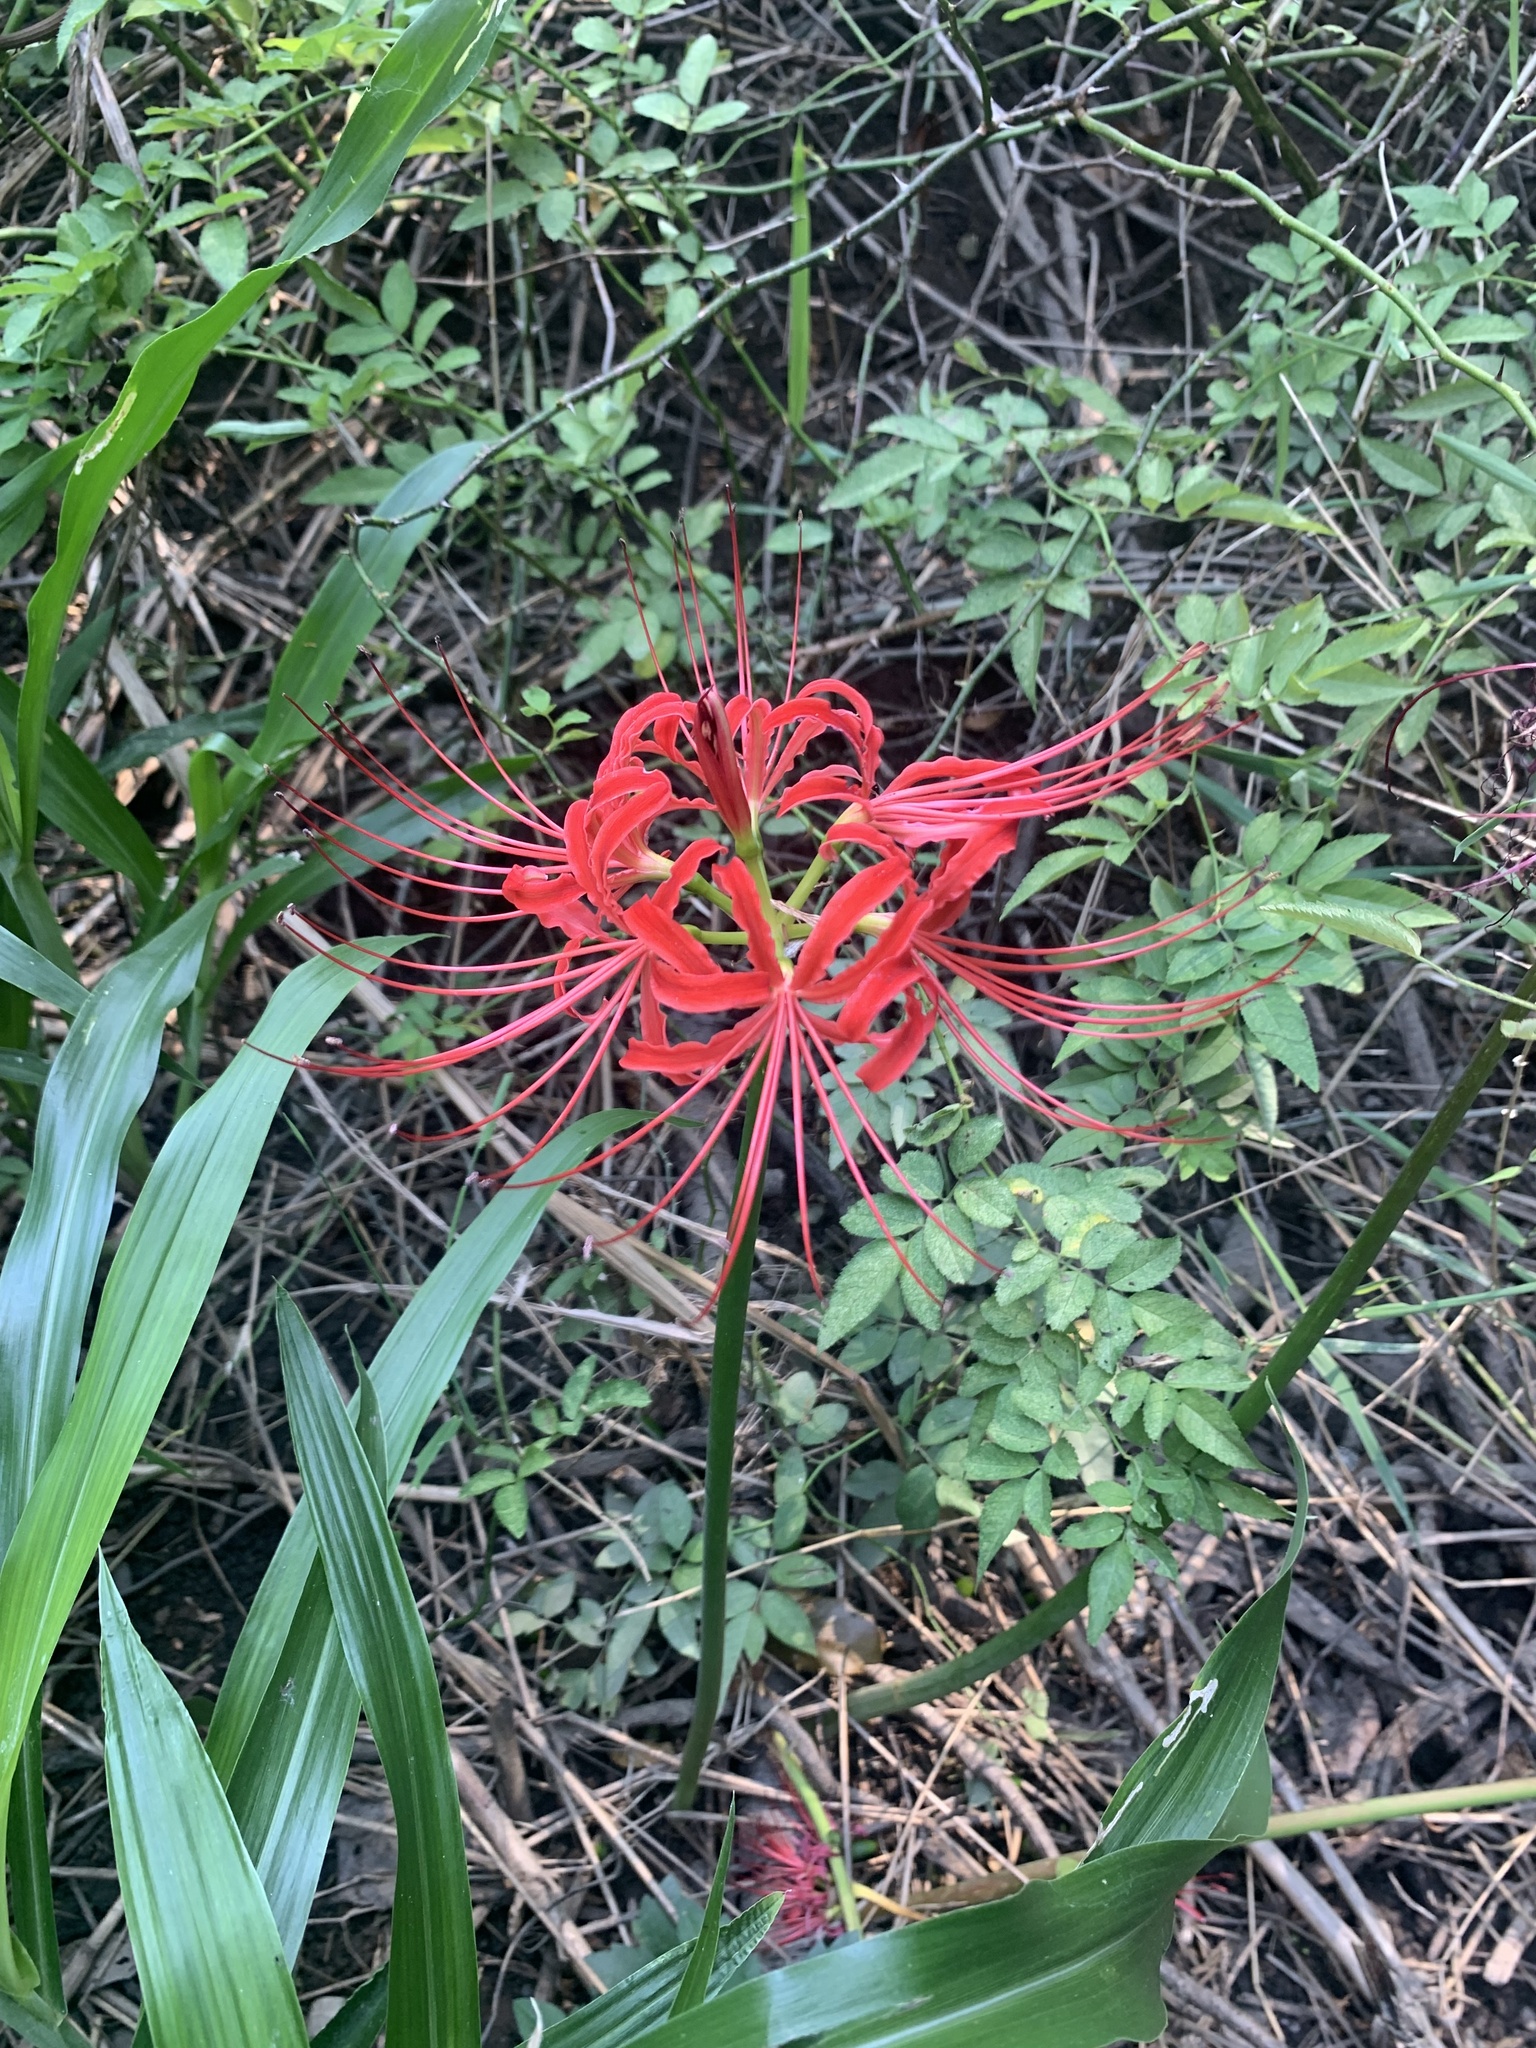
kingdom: Plantae
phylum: Tracheophyta
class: Liliopsida
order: Asparagales
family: Amaryllidaceae
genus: Lycoris
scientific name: Lycoris radiata
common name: Red spider lily
